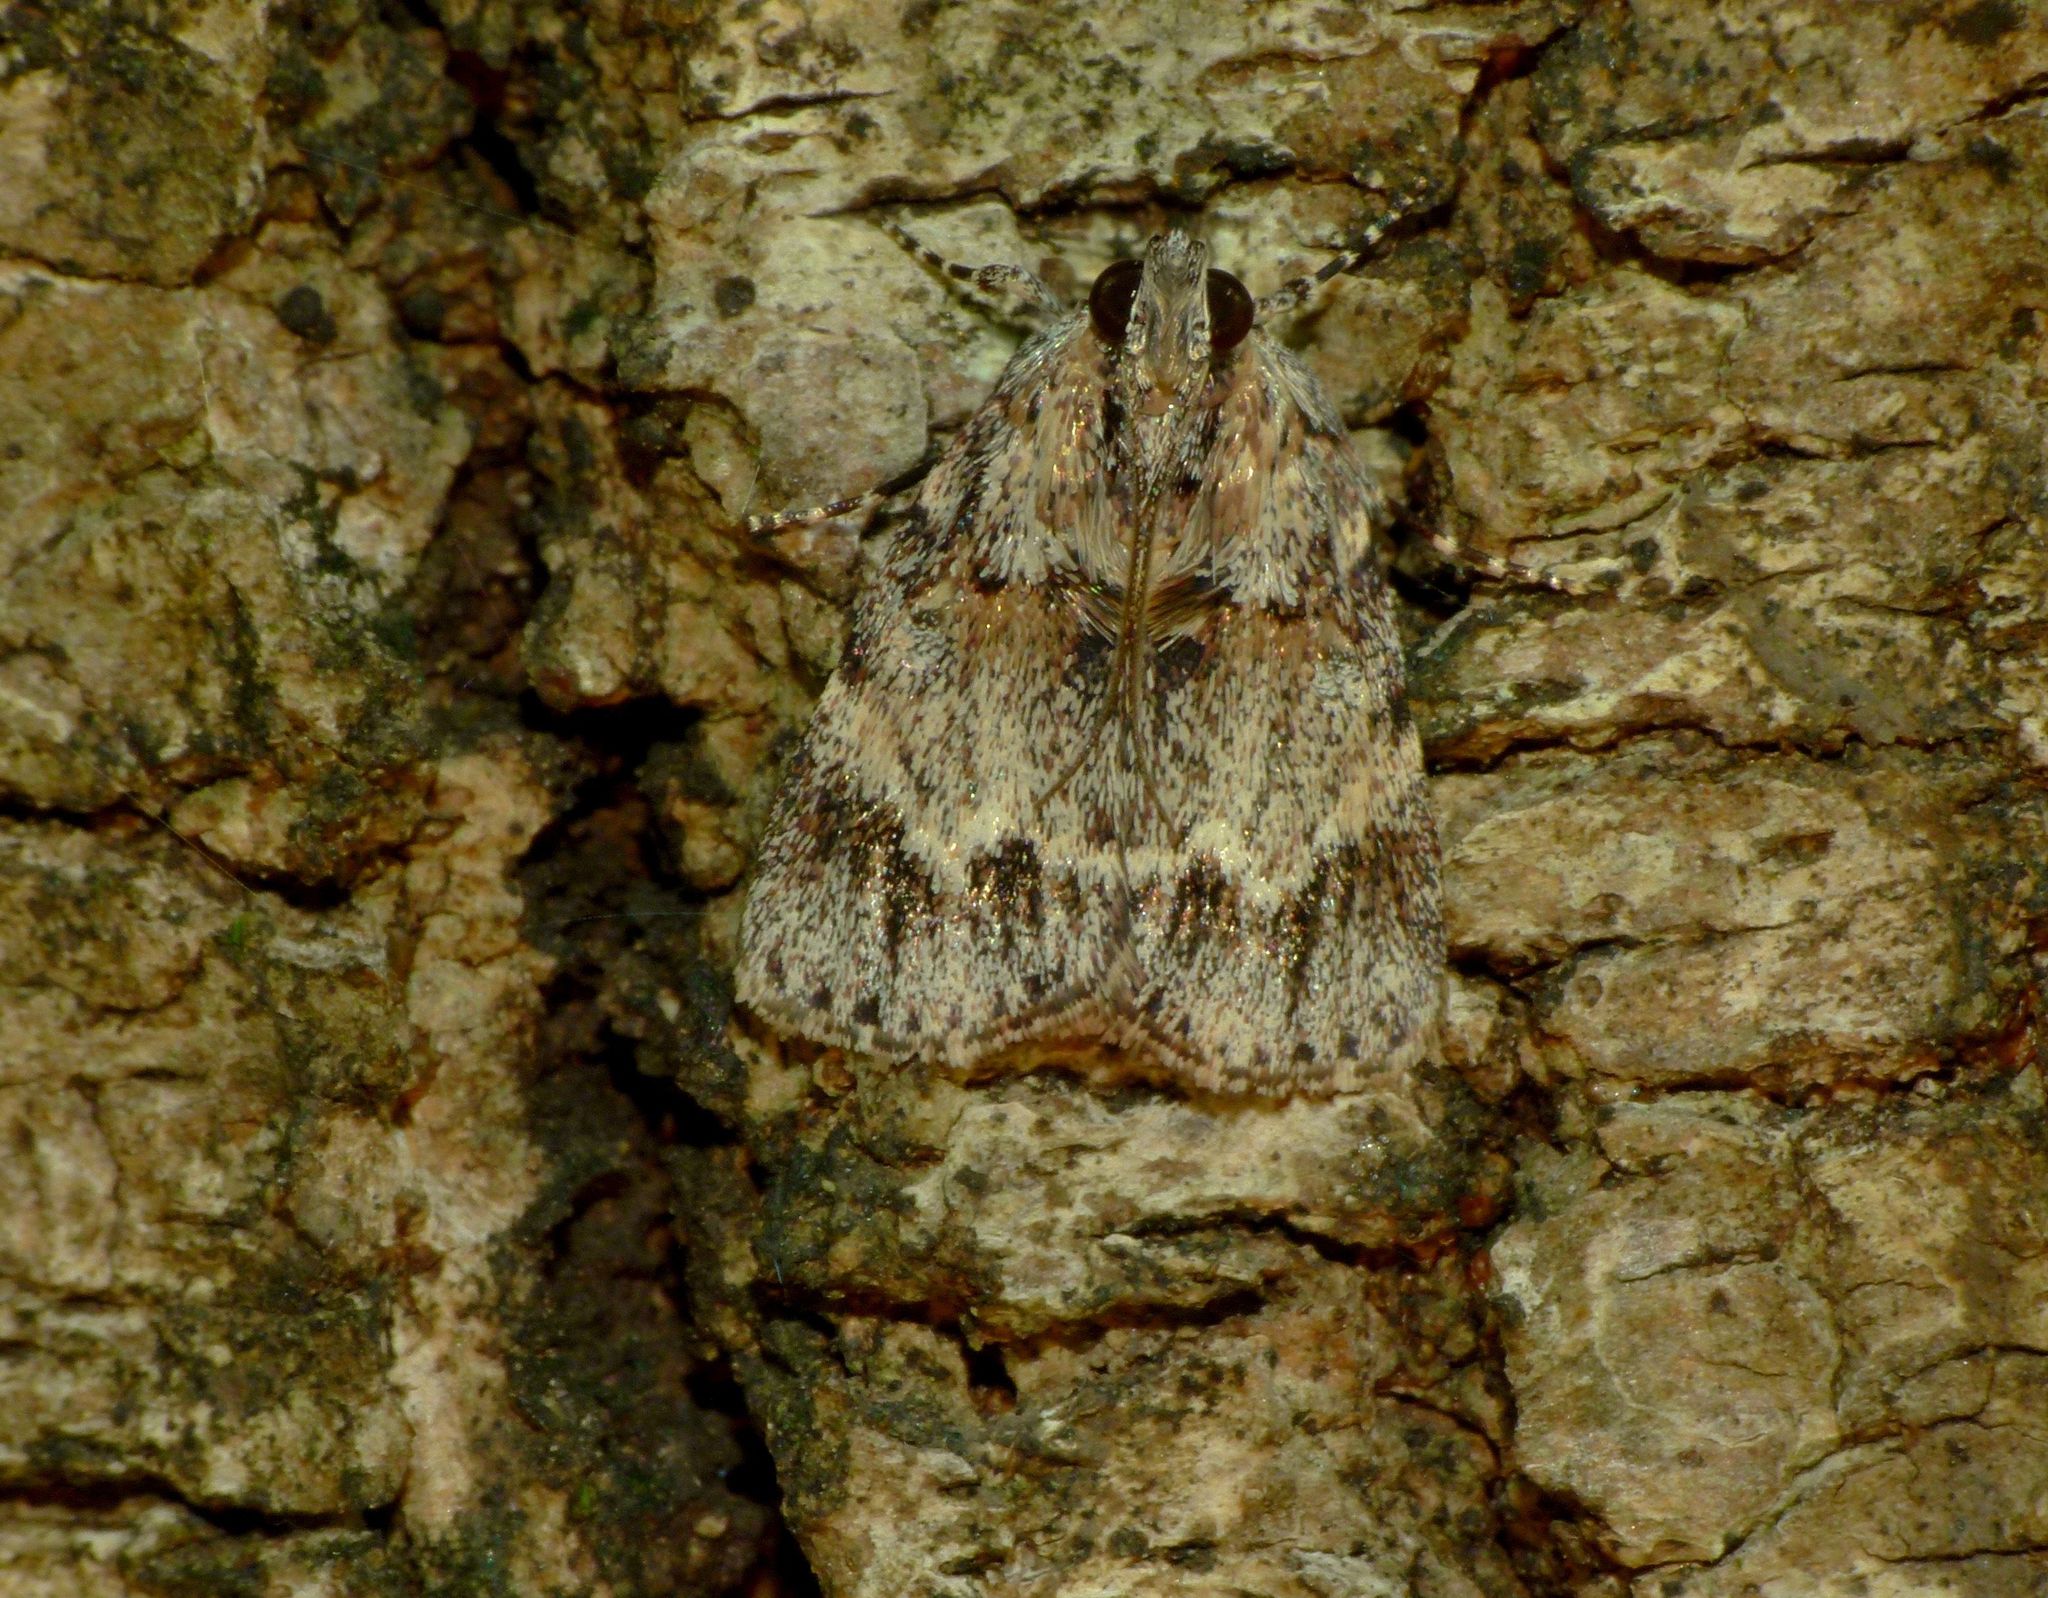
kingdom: Animalia
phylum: Arthropoda
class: Insecta
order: Lepidoptera
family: Pyralidae
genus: Spectrotrota
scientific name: Spectrotrota fimbrialis
